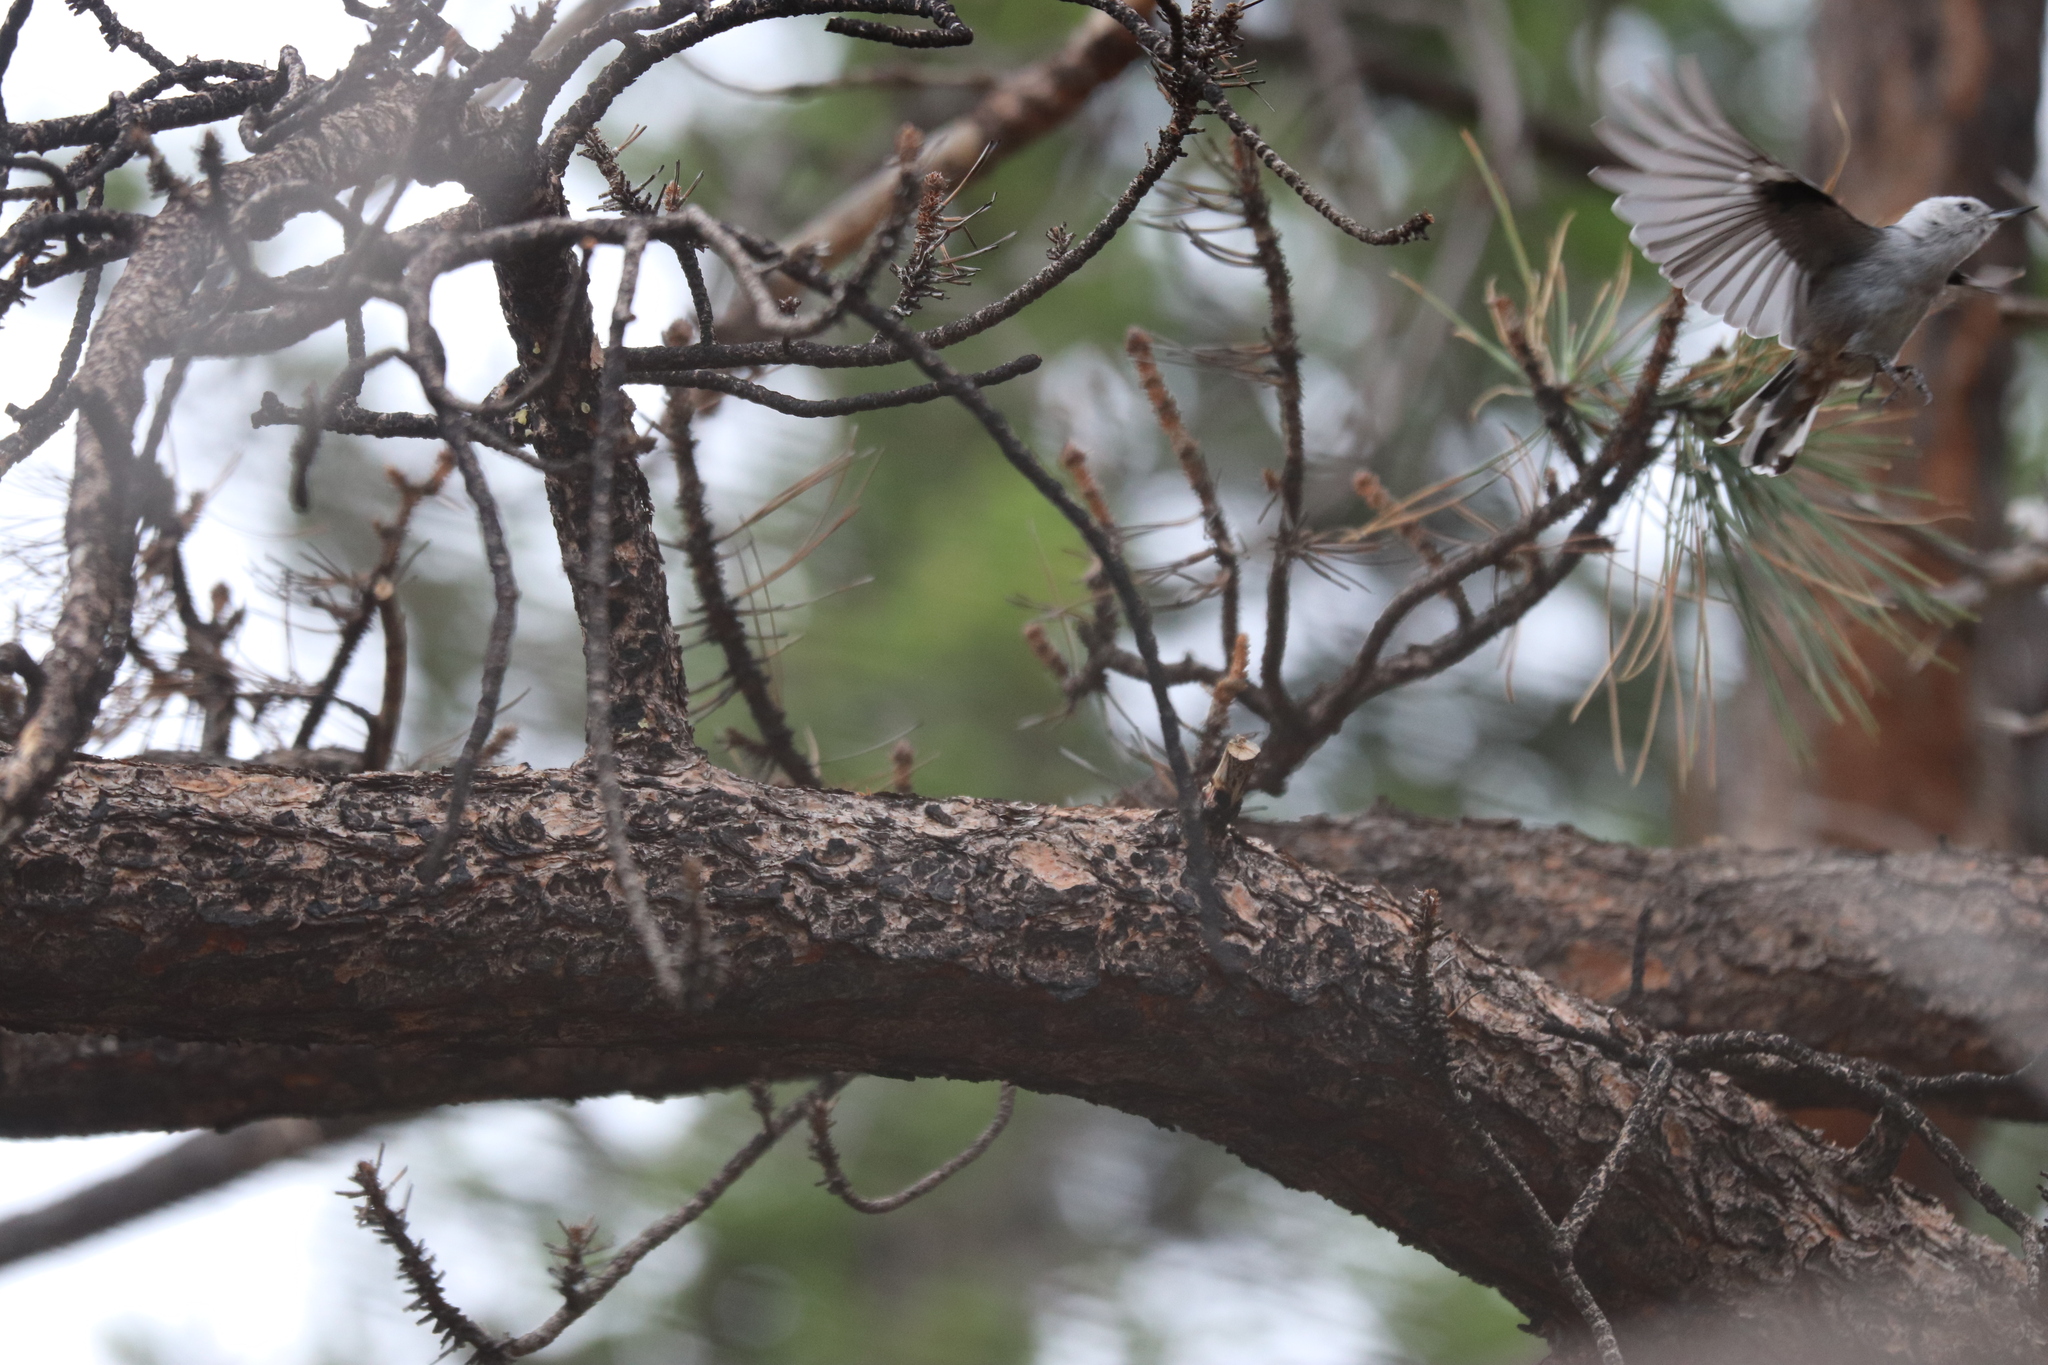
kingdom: Animalia
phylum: Chordata
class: Aves
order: Passeriformes
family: Sittidae
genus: Sitta
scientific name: Sitta carolinensis
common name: White-breasted nuthatch
